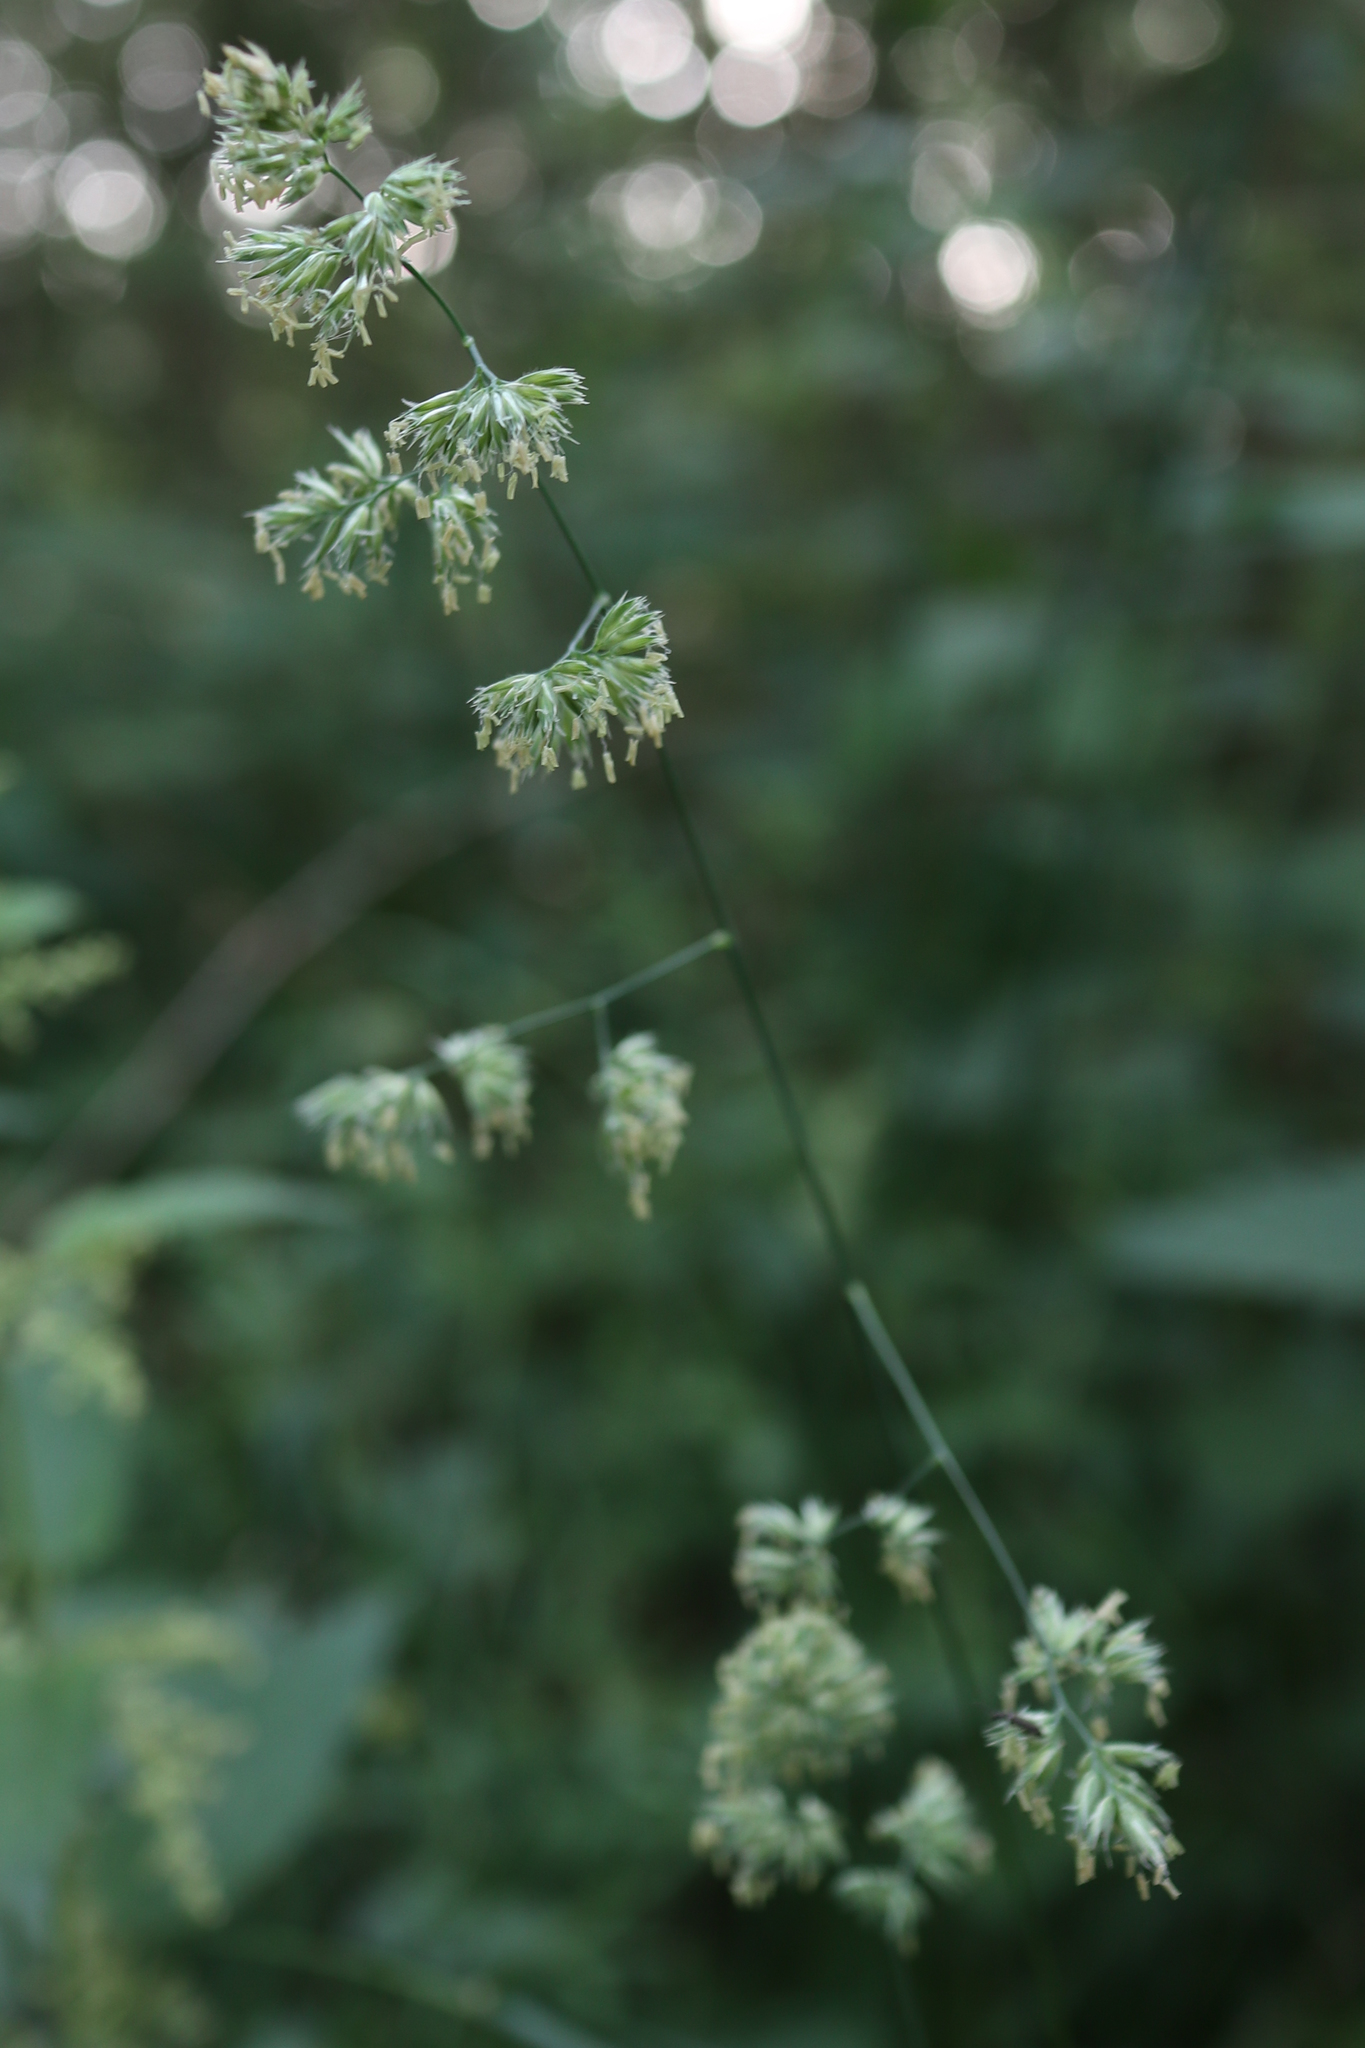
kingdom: Plantae
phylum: Tracheophyta
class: Liliopsida
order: Poales
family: Poaceae
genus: Dactylis
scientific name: Dactylis glomerata
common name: Orchardgrass
